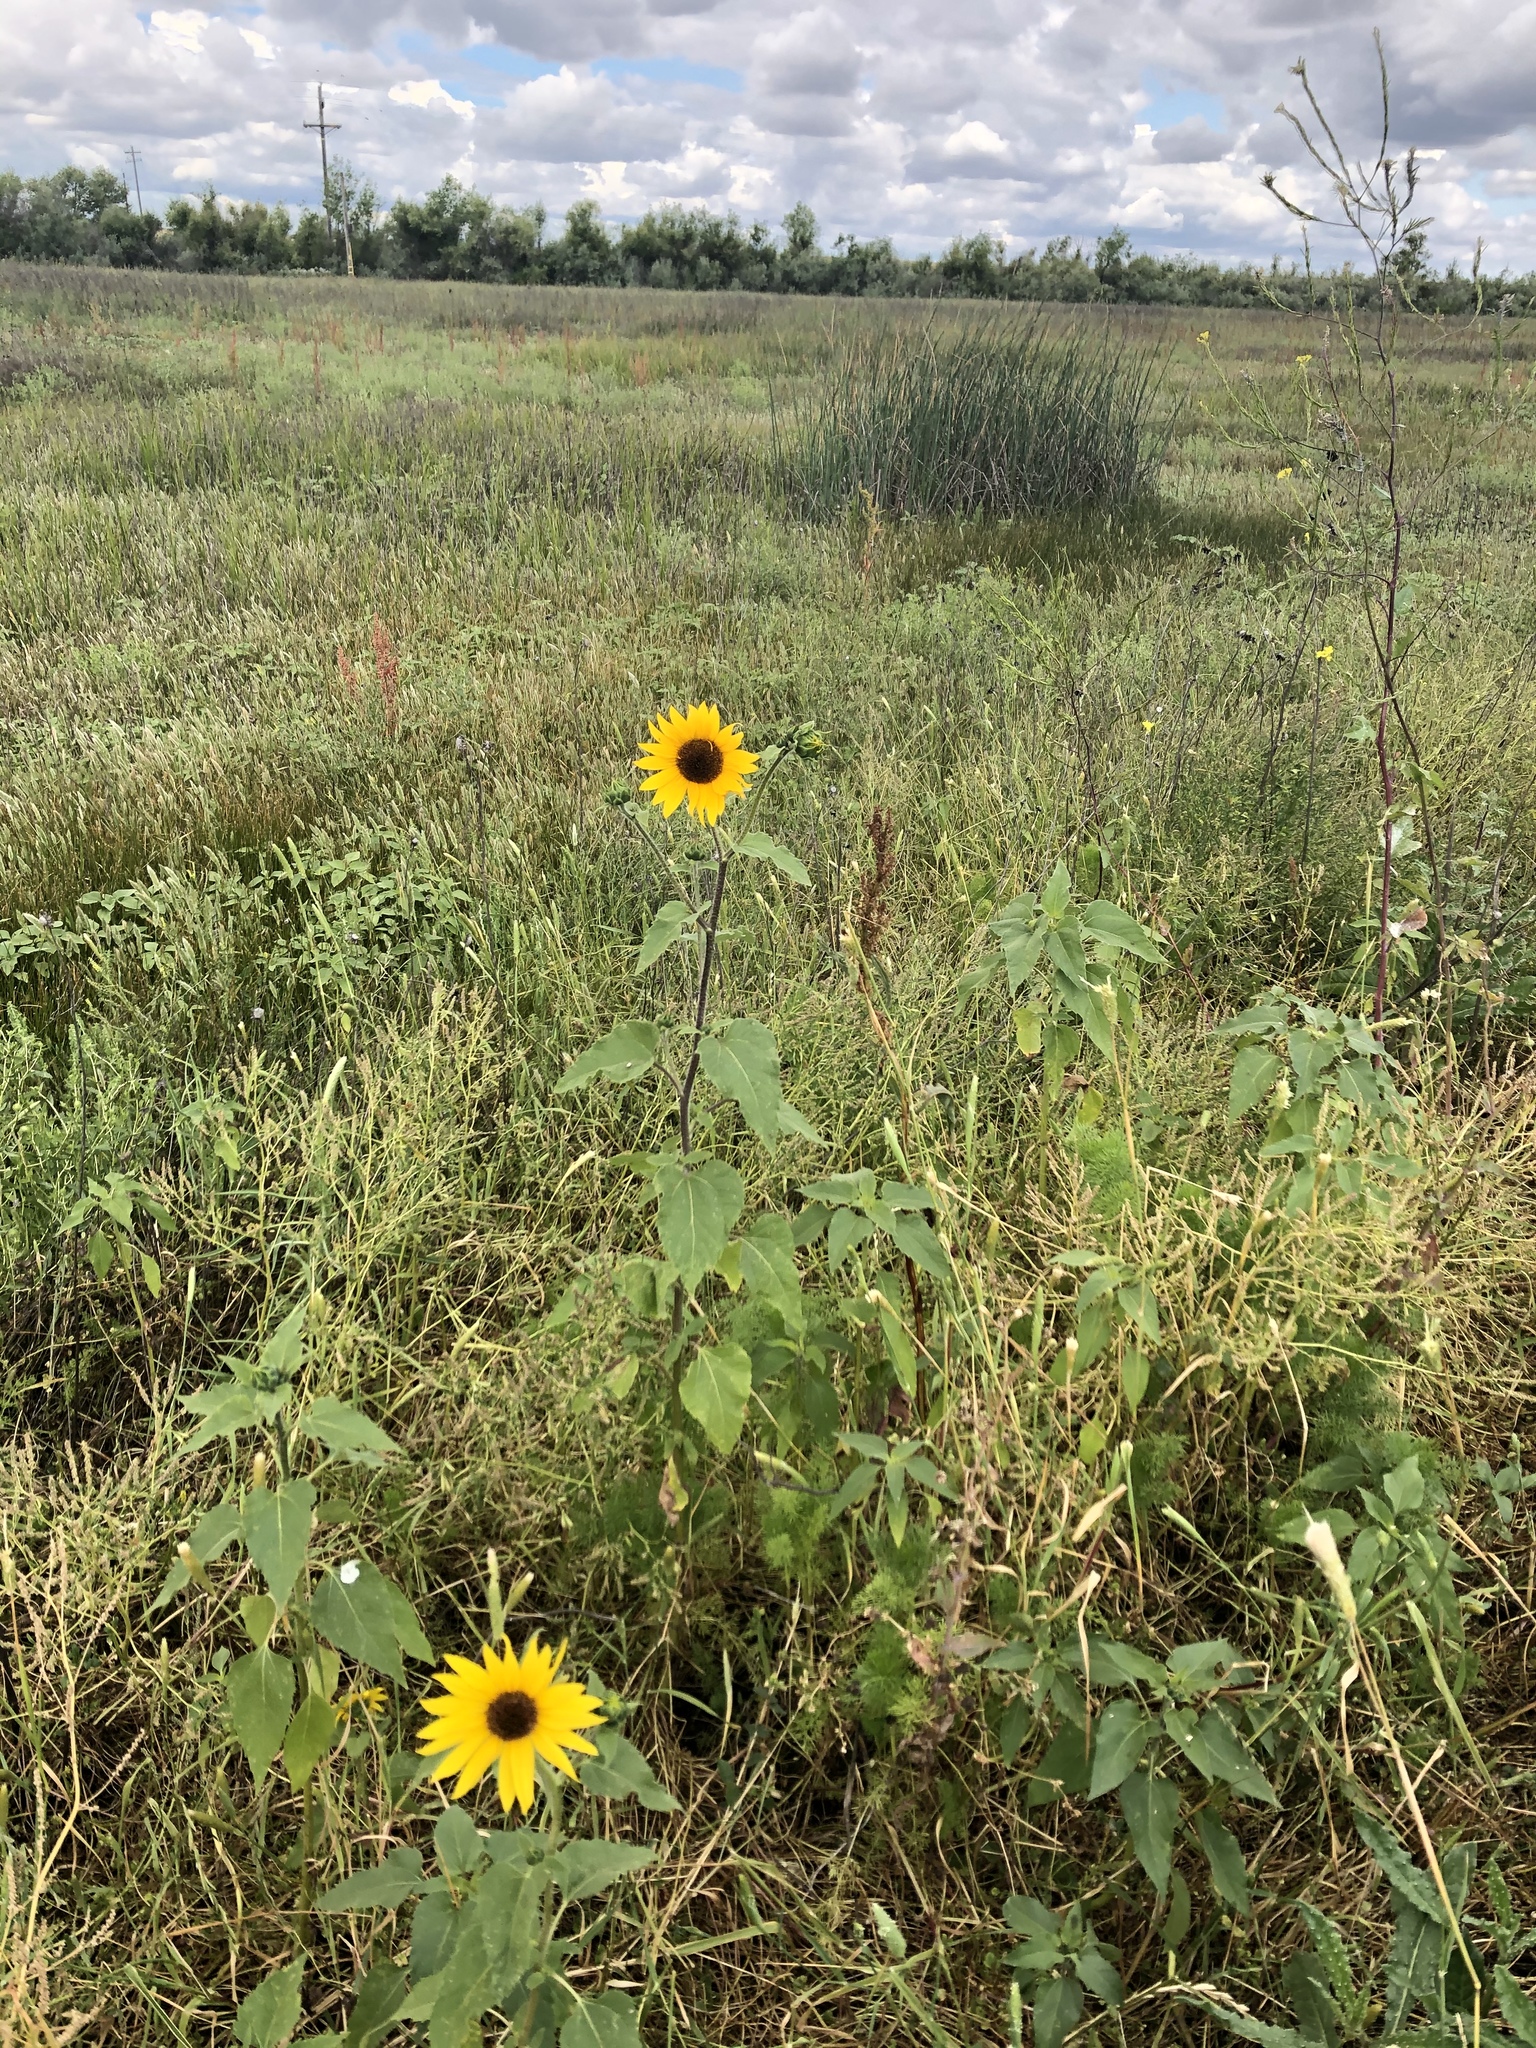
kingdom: Plantae
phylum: Tracheophyta
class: Magnoliopsida
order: Asterales
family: Asteraceae
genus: Helianthus
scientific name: Helianthus annuus
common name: Sunflower
